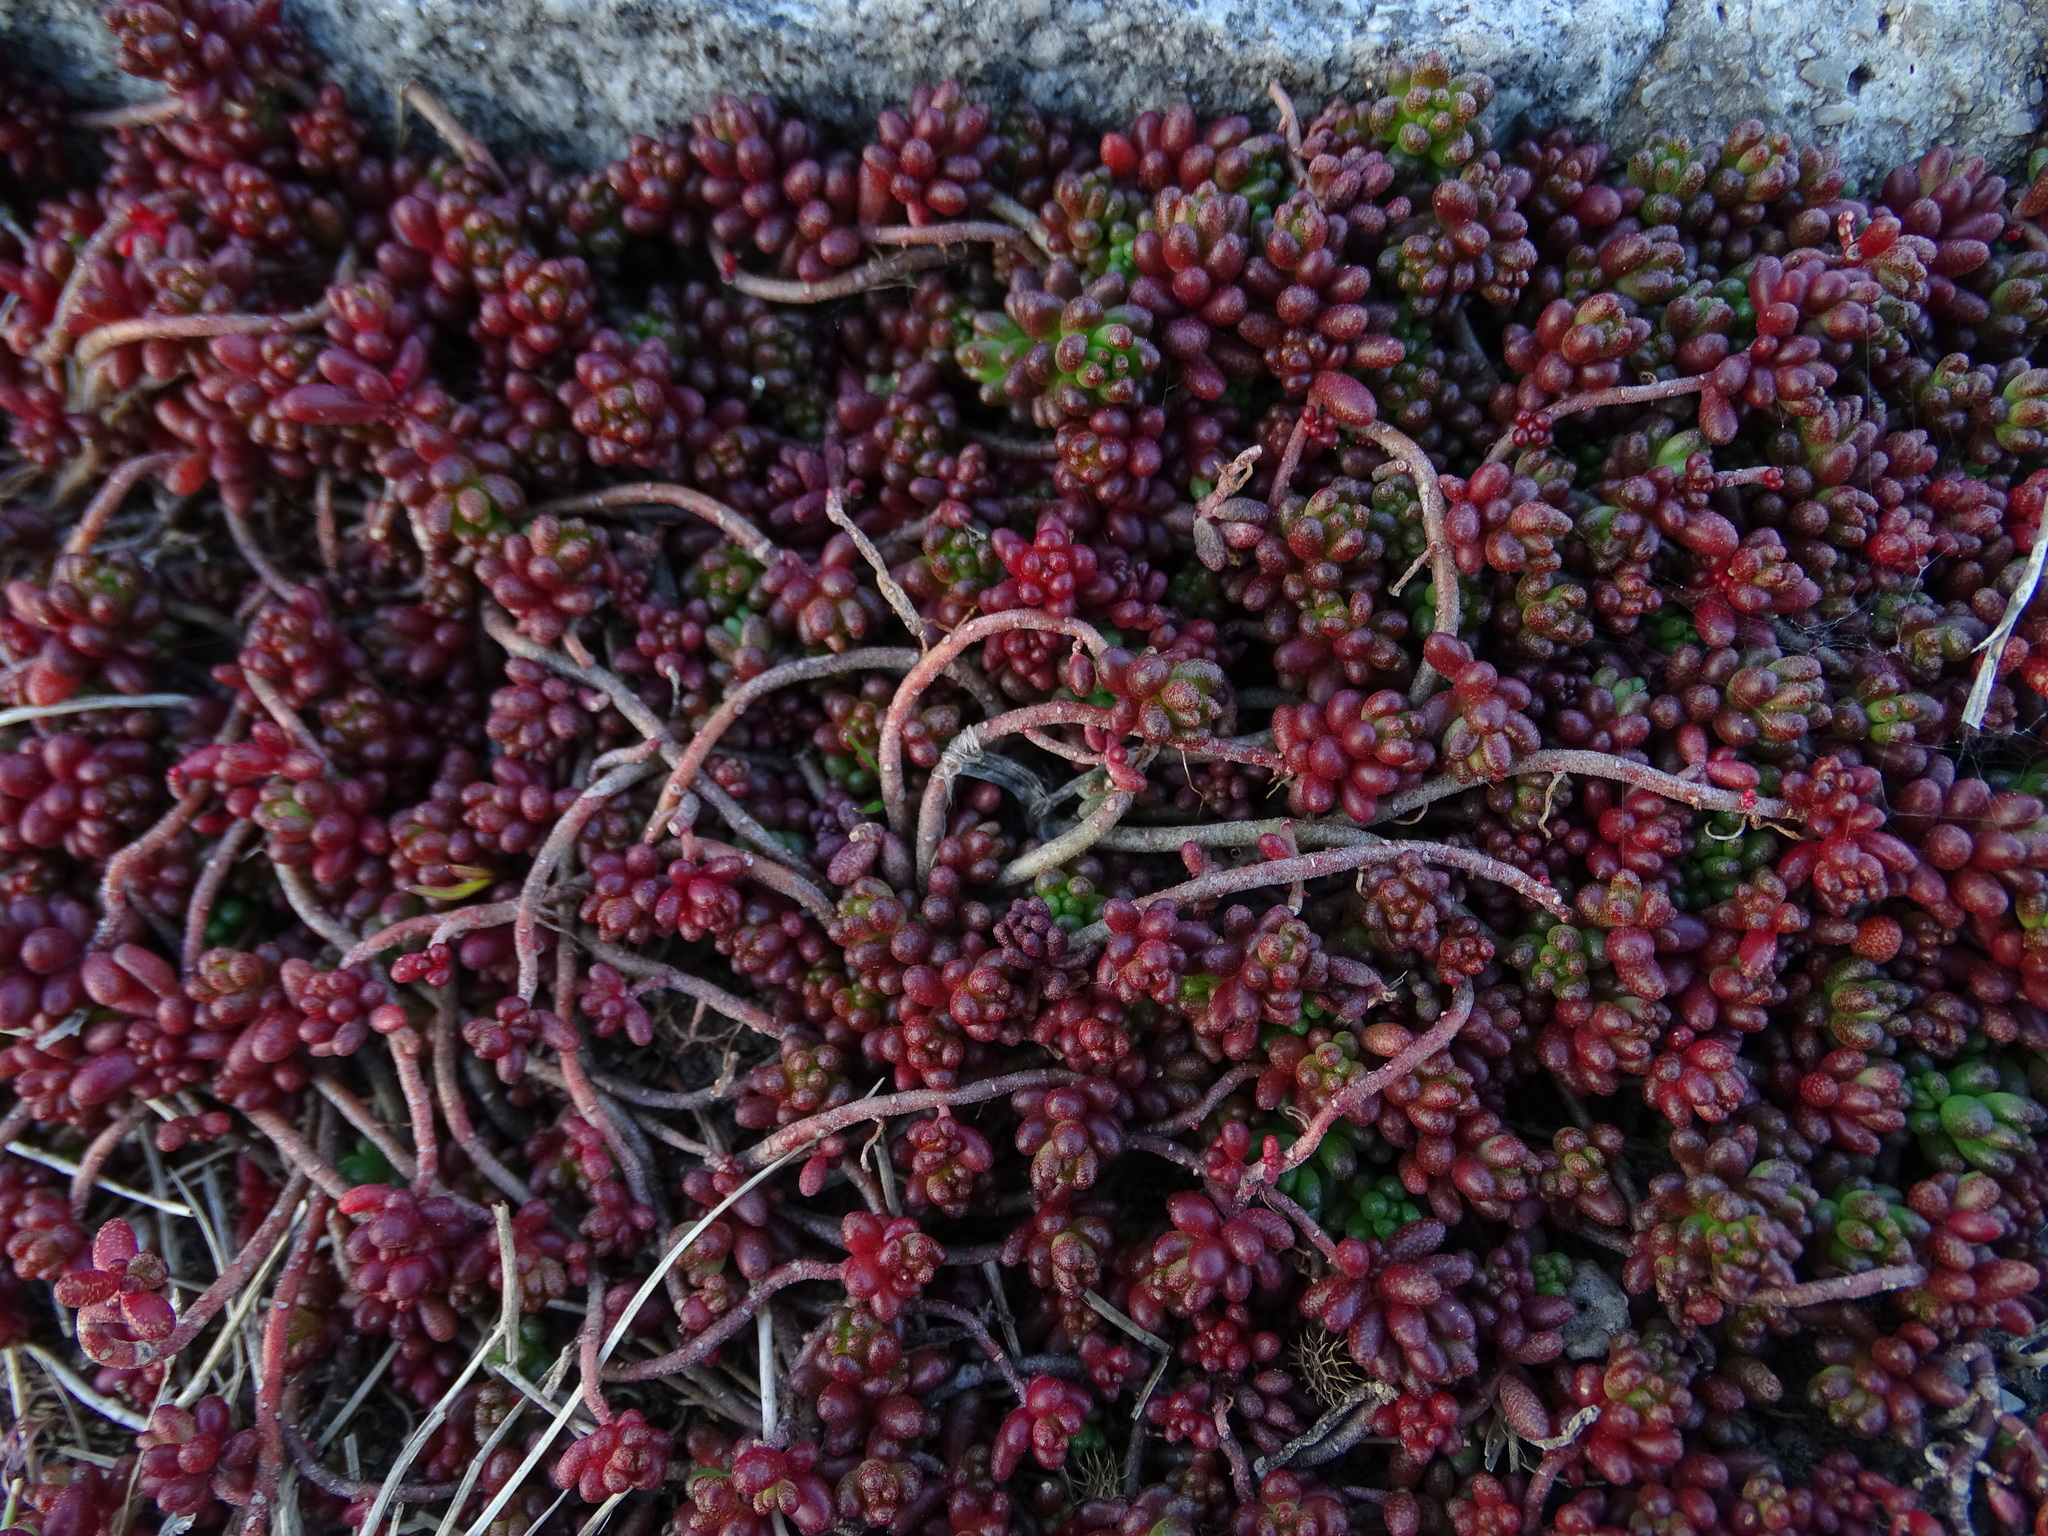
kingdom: Plantae
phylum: Tracheophyta
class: Magnoliopsida
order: Saxifragales
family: Crassulaceae
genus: Sedum
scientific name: Sedum album
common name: White stonecrop
